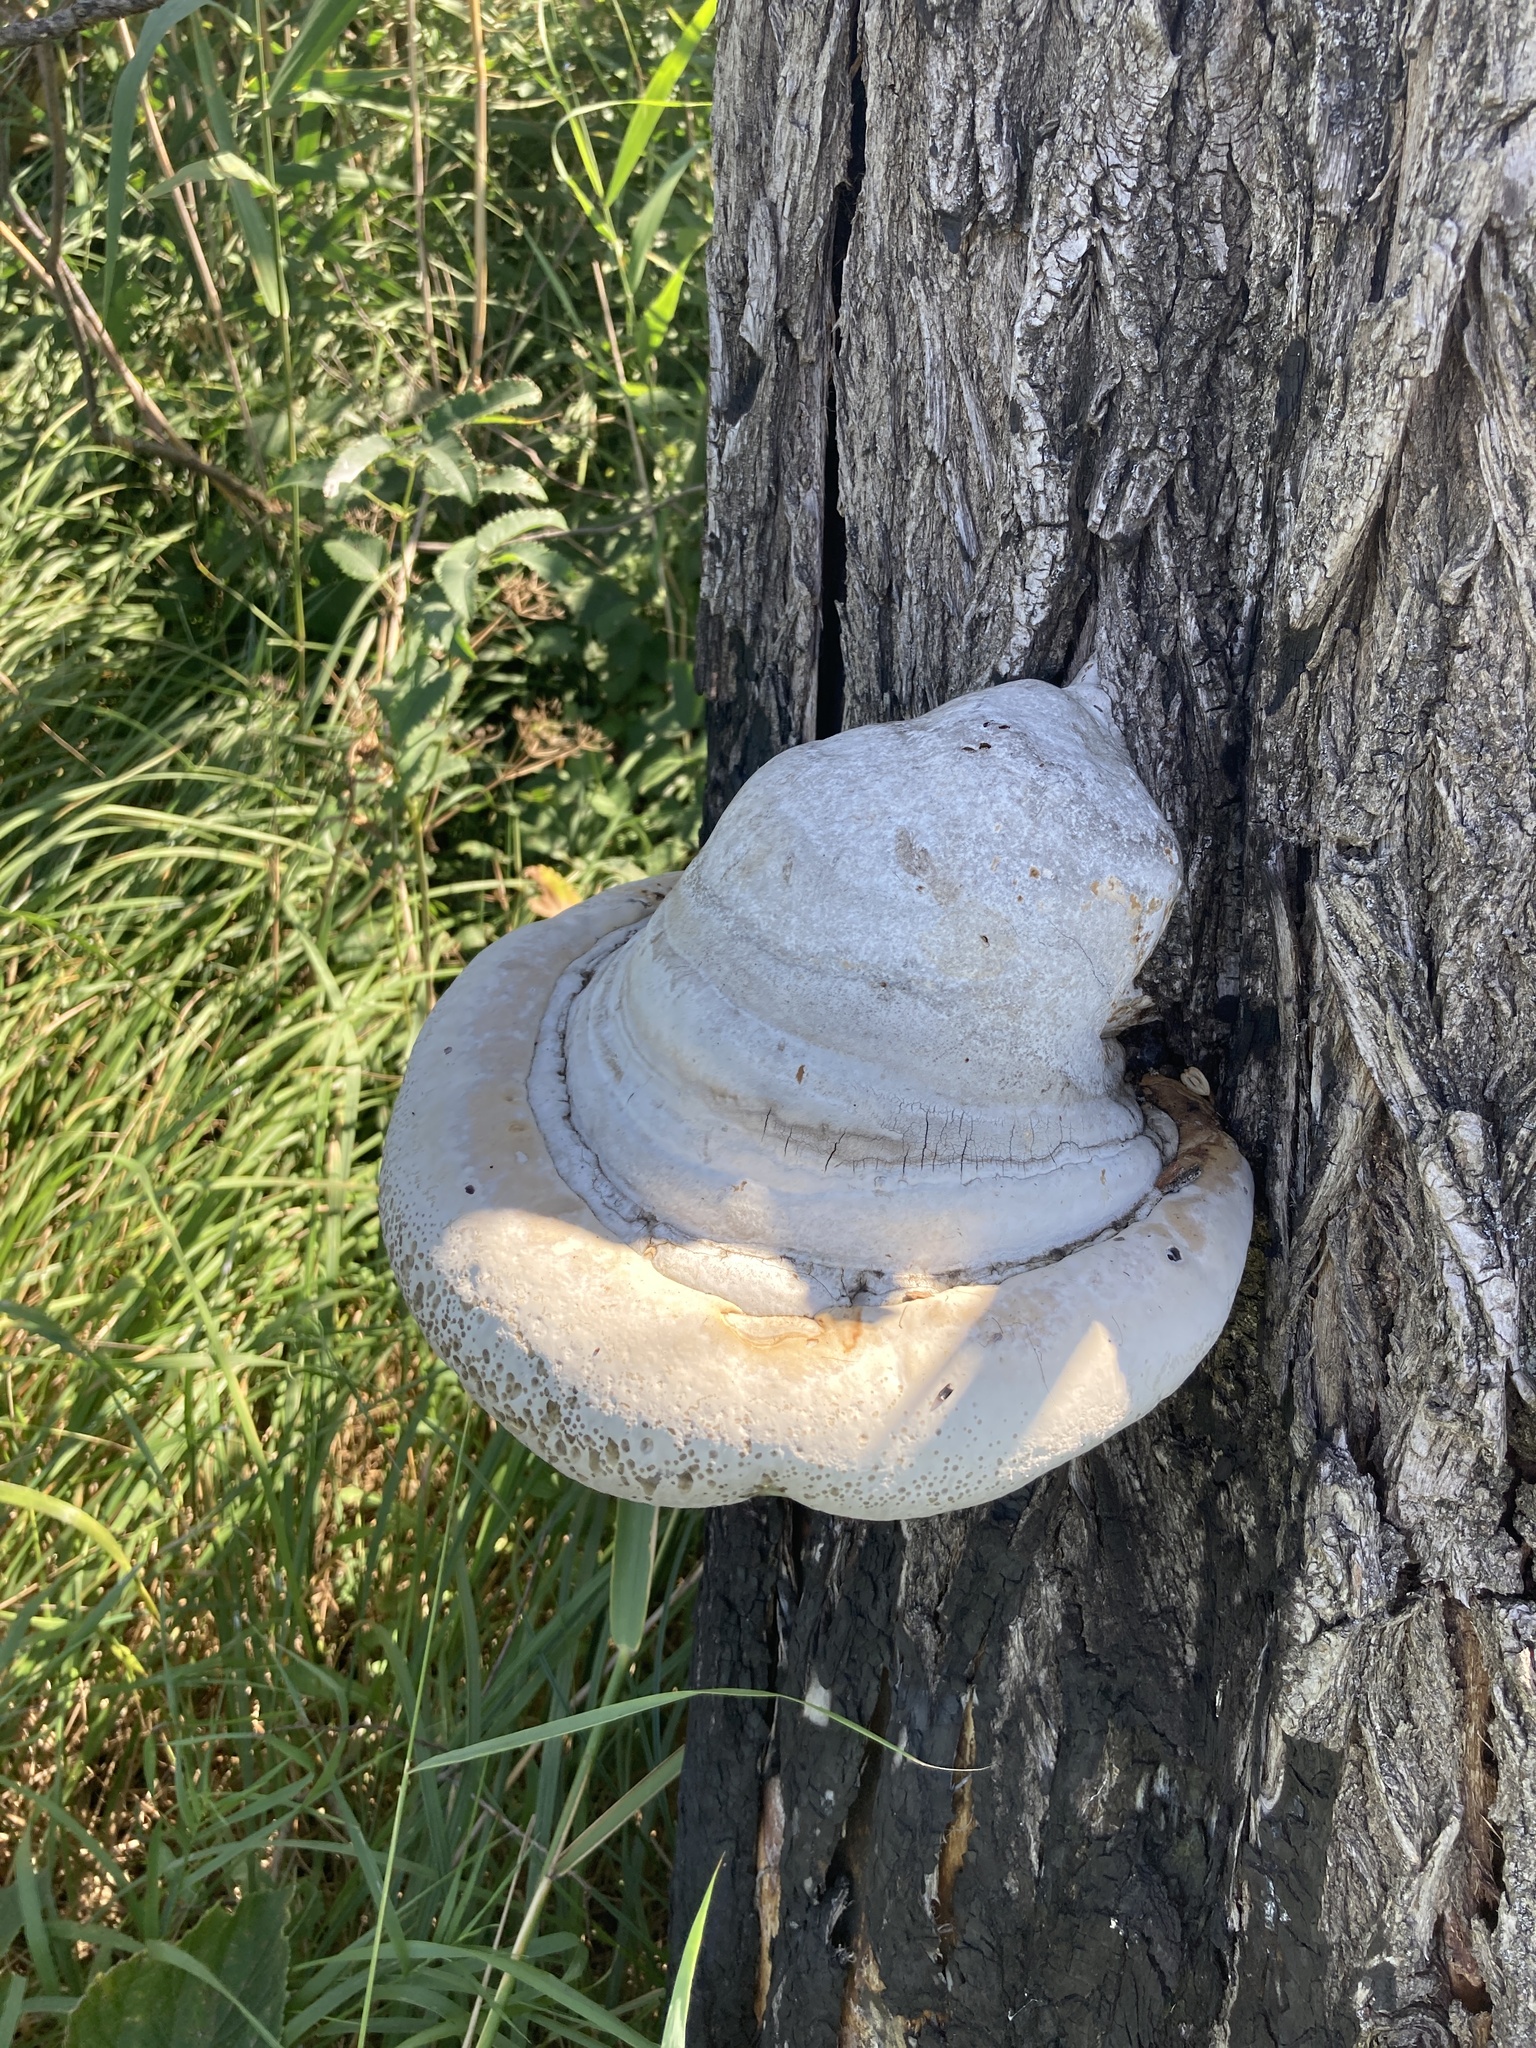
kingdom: Fungi
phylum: Basidiomycota
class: Agaricomycetes
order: Polyporales
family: Polyporaceae
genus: Fomes
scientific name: Fomes fomentarius
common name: Hoof fungus
